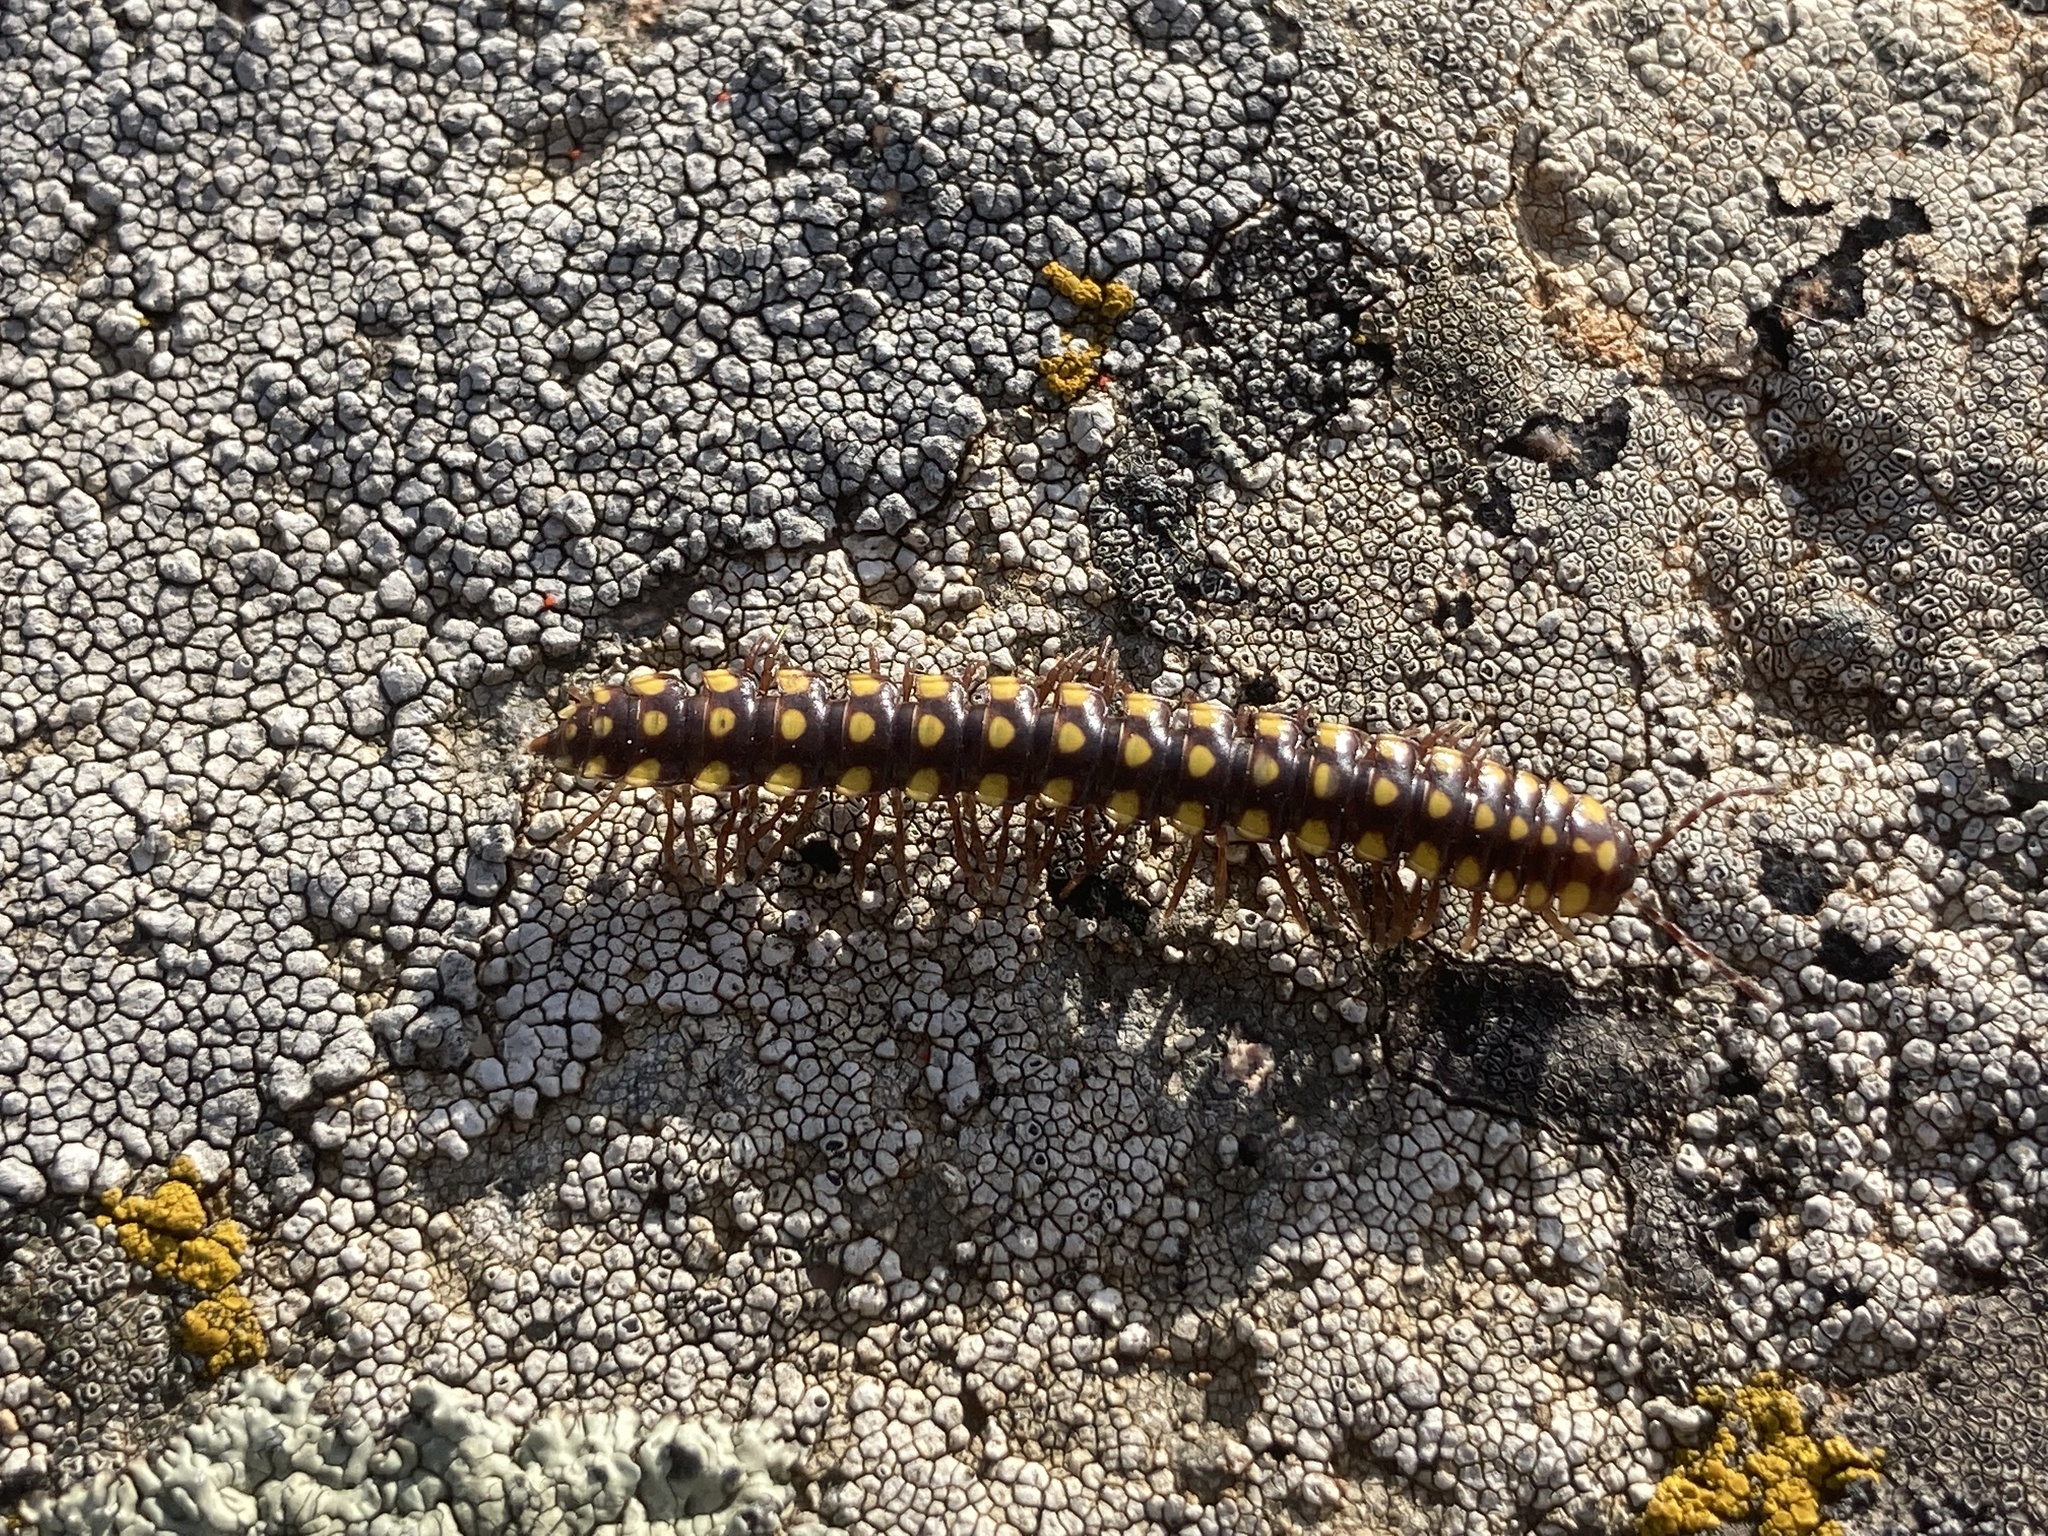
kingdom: Animalia
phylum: Arthropoda
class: Diplopoda
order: Polydesmida
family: Xystodesmidae
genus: Melaphe
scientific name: Melaphe vestita
